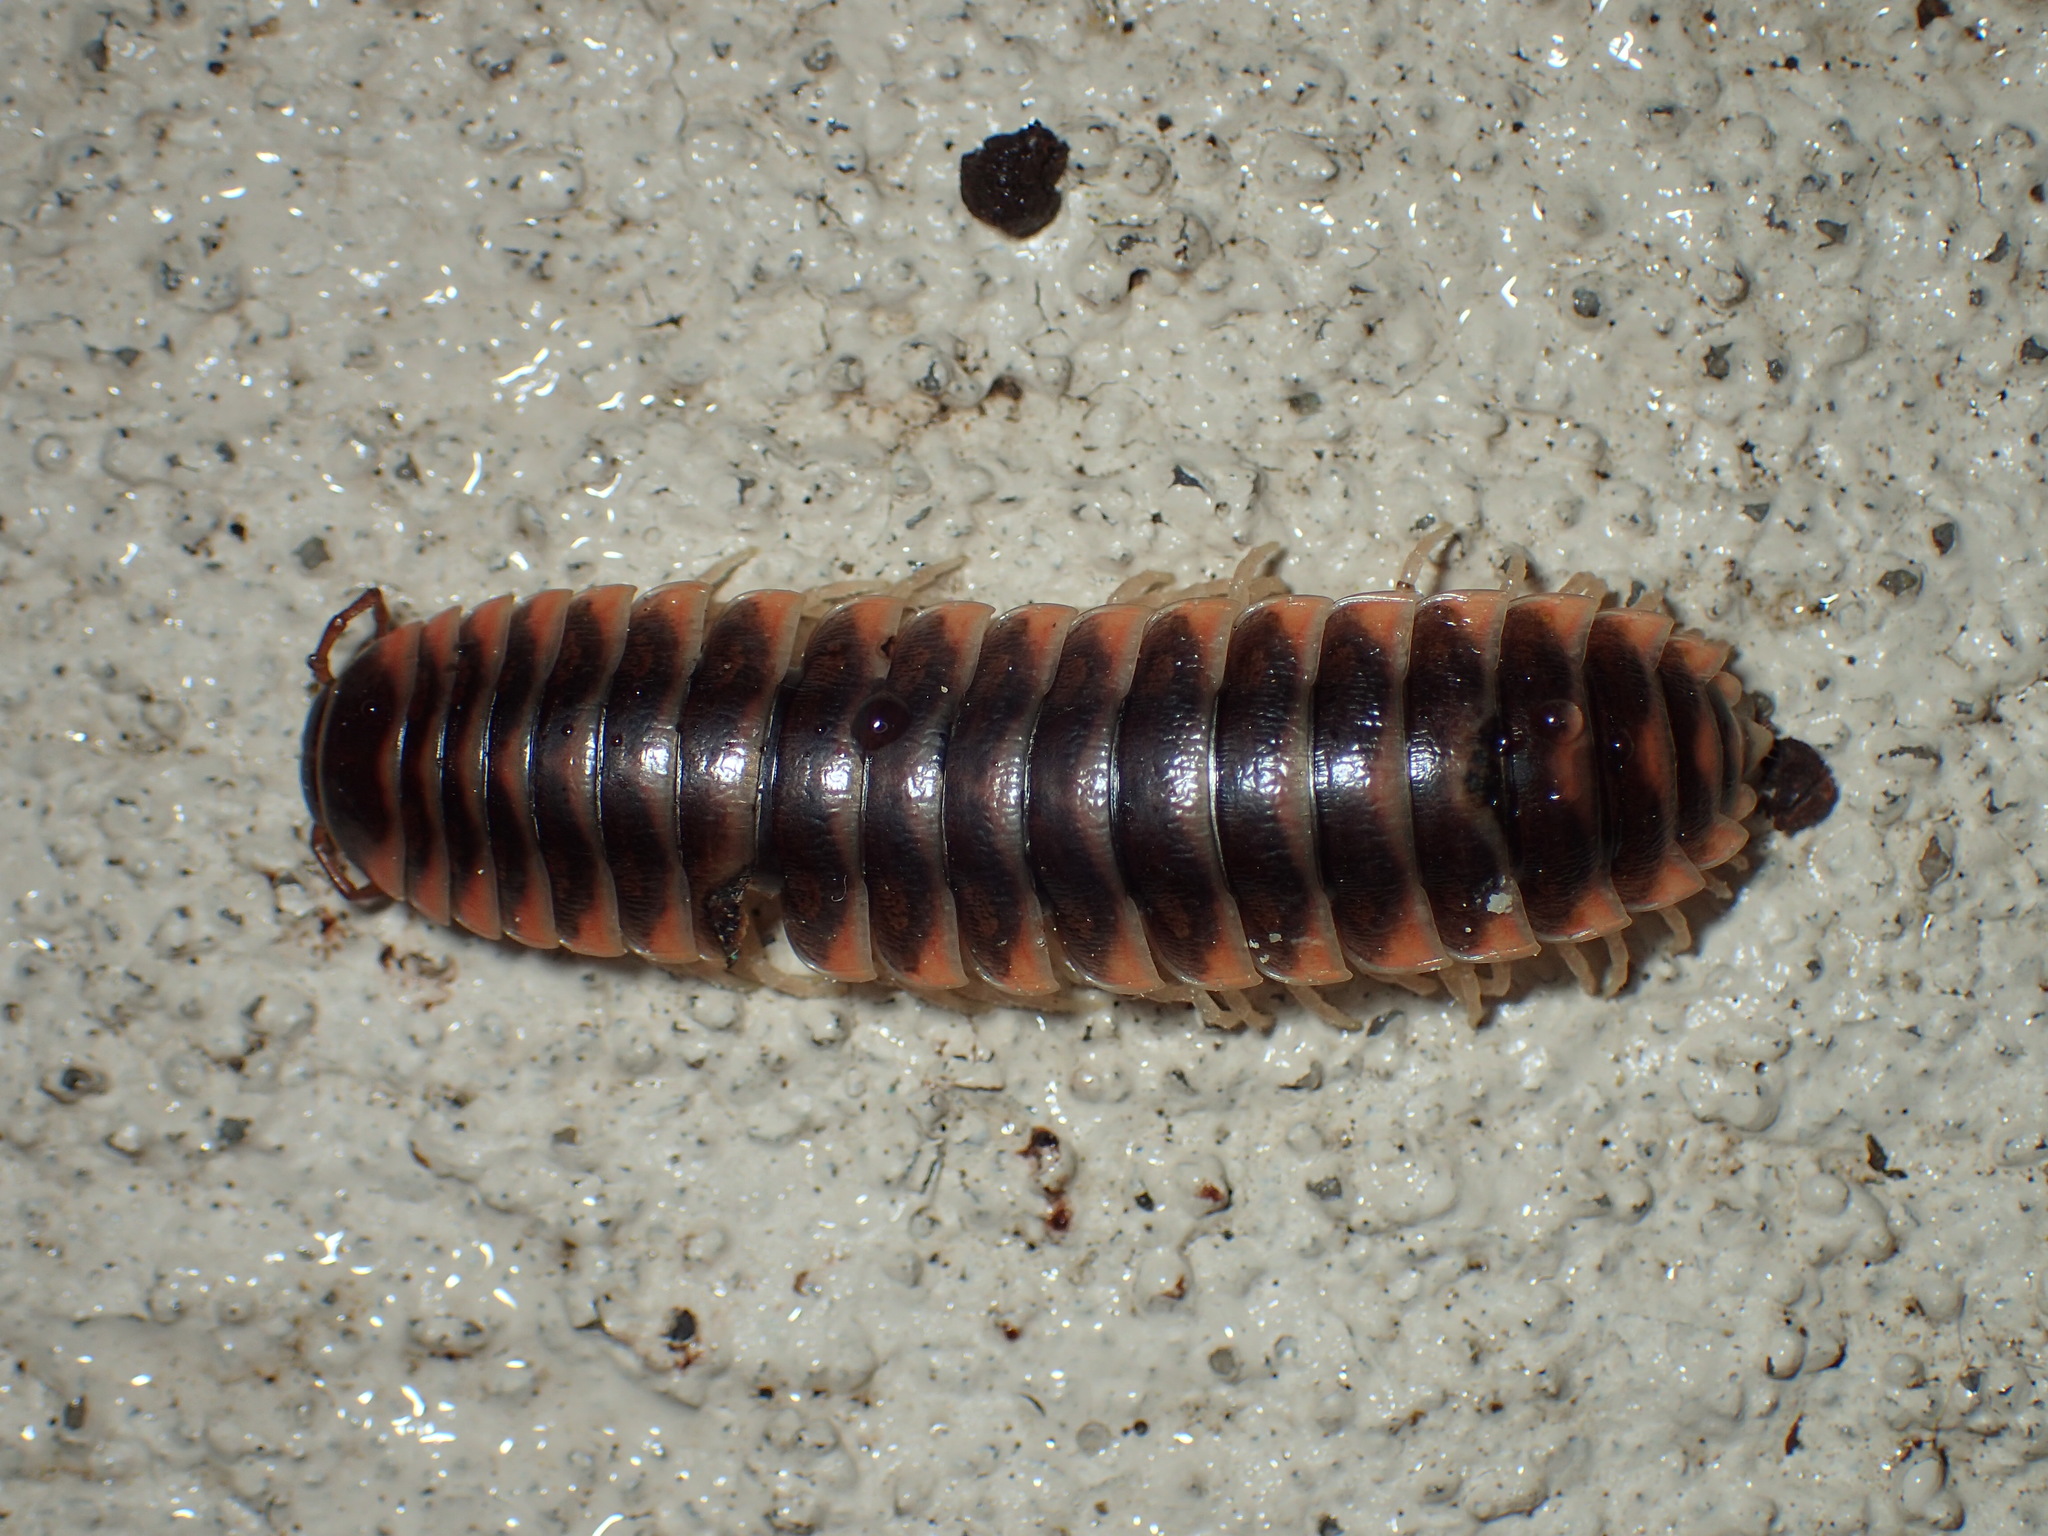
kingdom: Animalia
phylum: Arthropoda
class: Diplopoda
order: Polydesmida
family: Xystodesmidae
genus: Cherokia
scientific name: Cherokia georgiana
